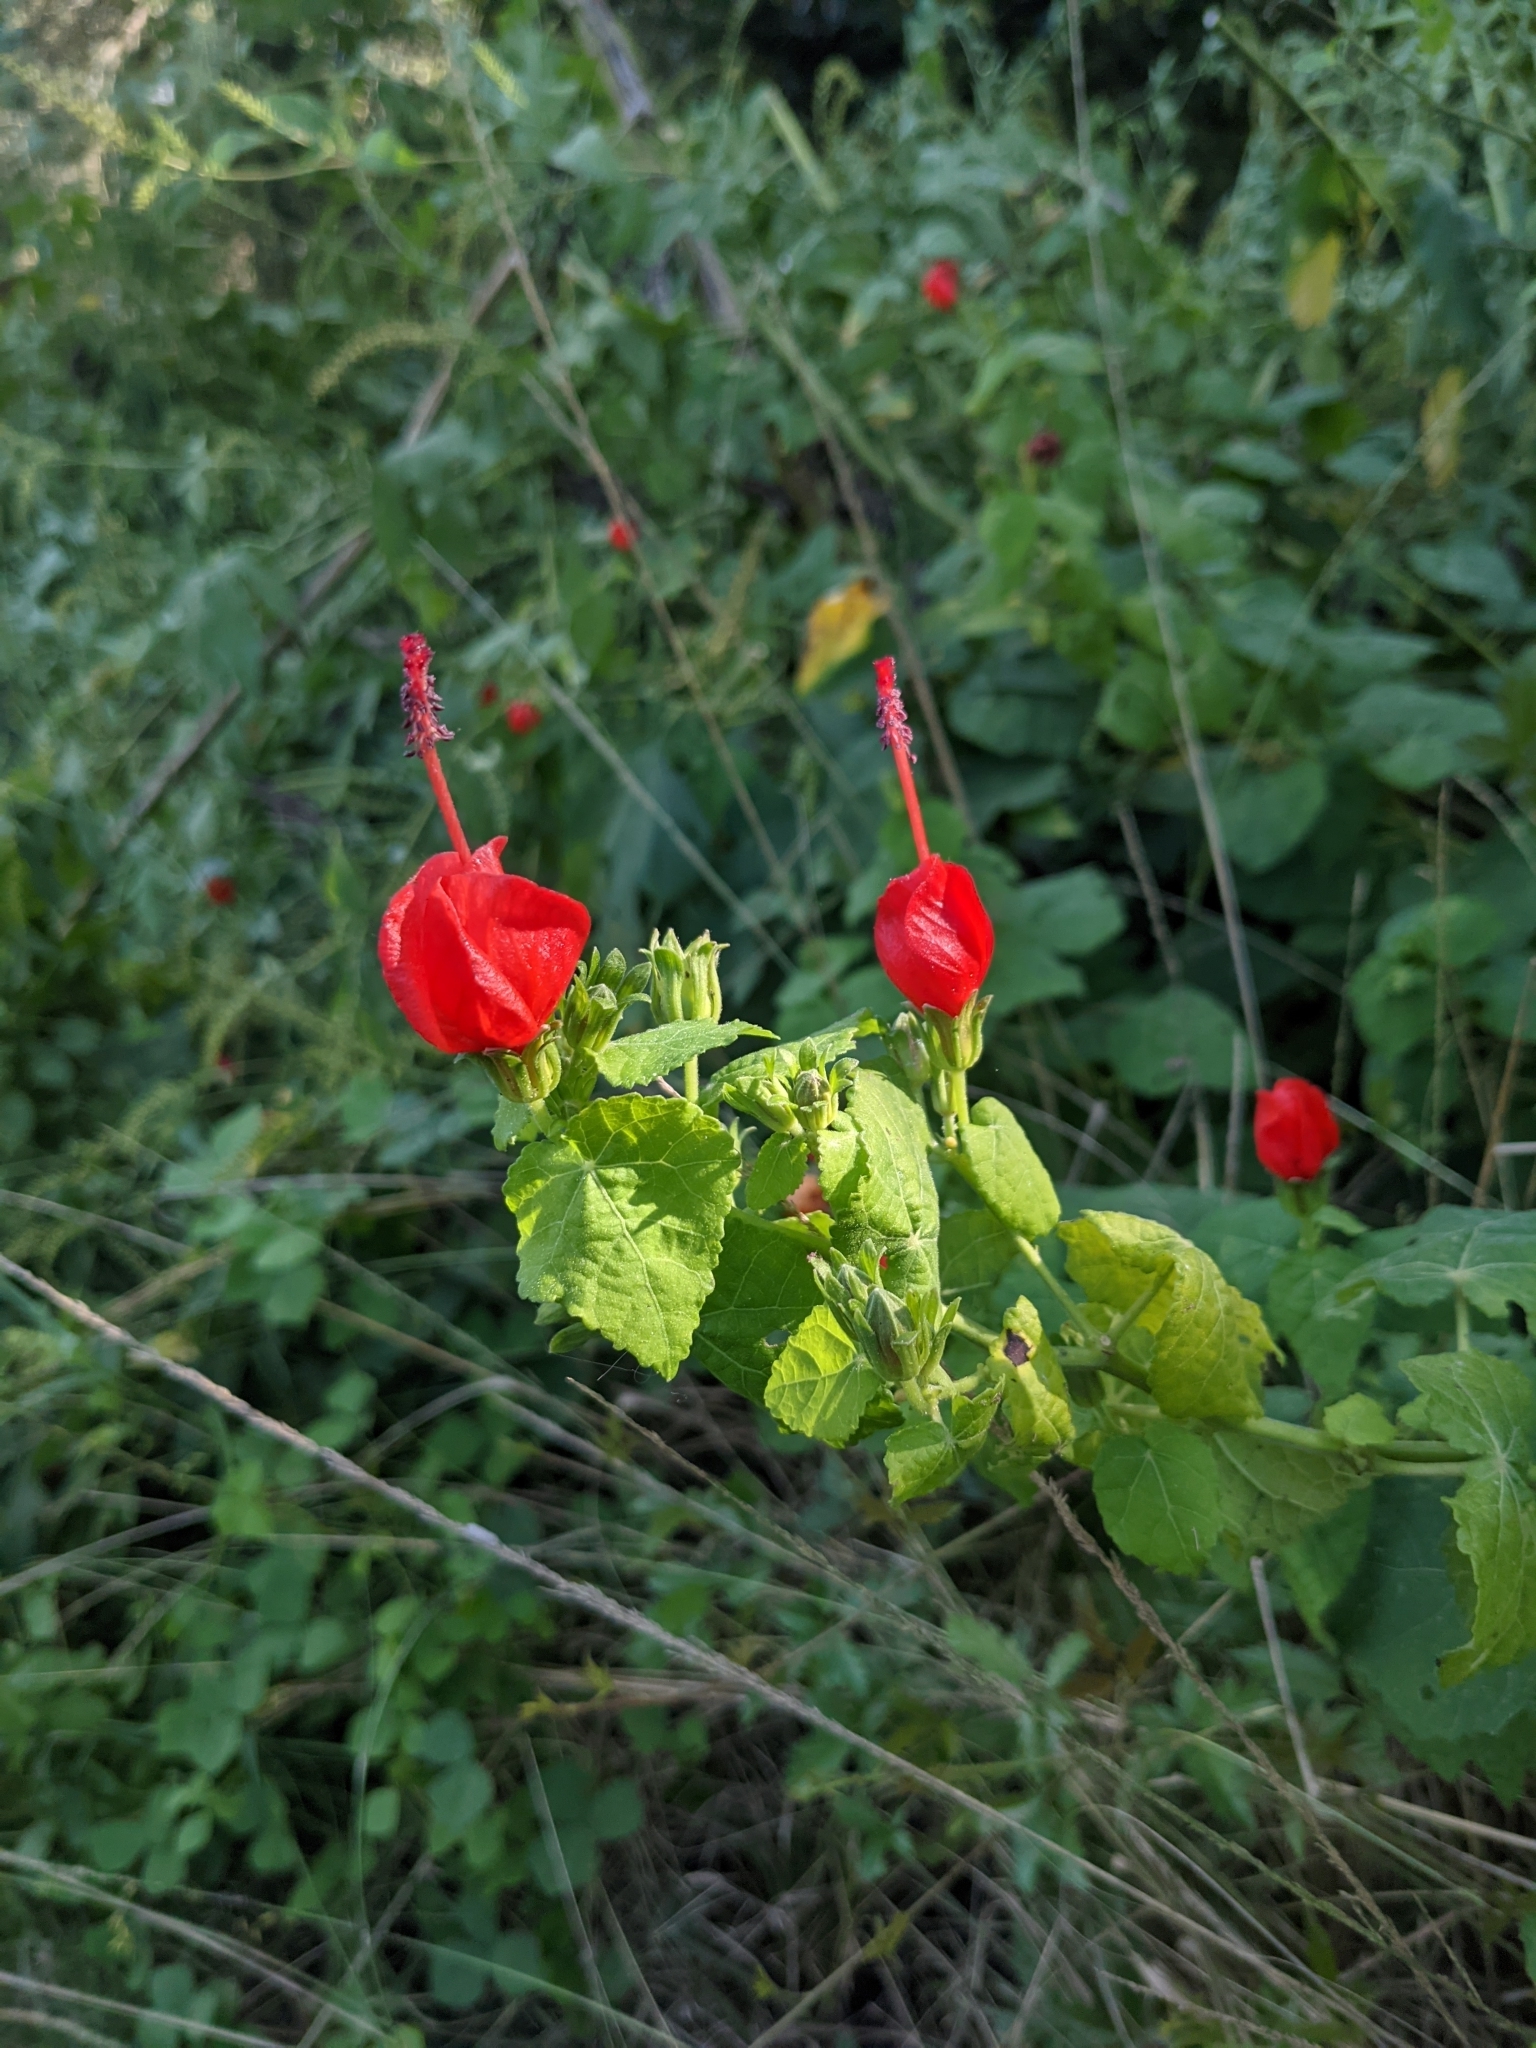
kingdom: Plantae
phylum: Tracheophyta
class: Magnoliopsida
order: Malvales
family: Malvaceae
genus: Malvaviscus
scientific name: Malvaviscus arboreus
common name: Wax mallow
